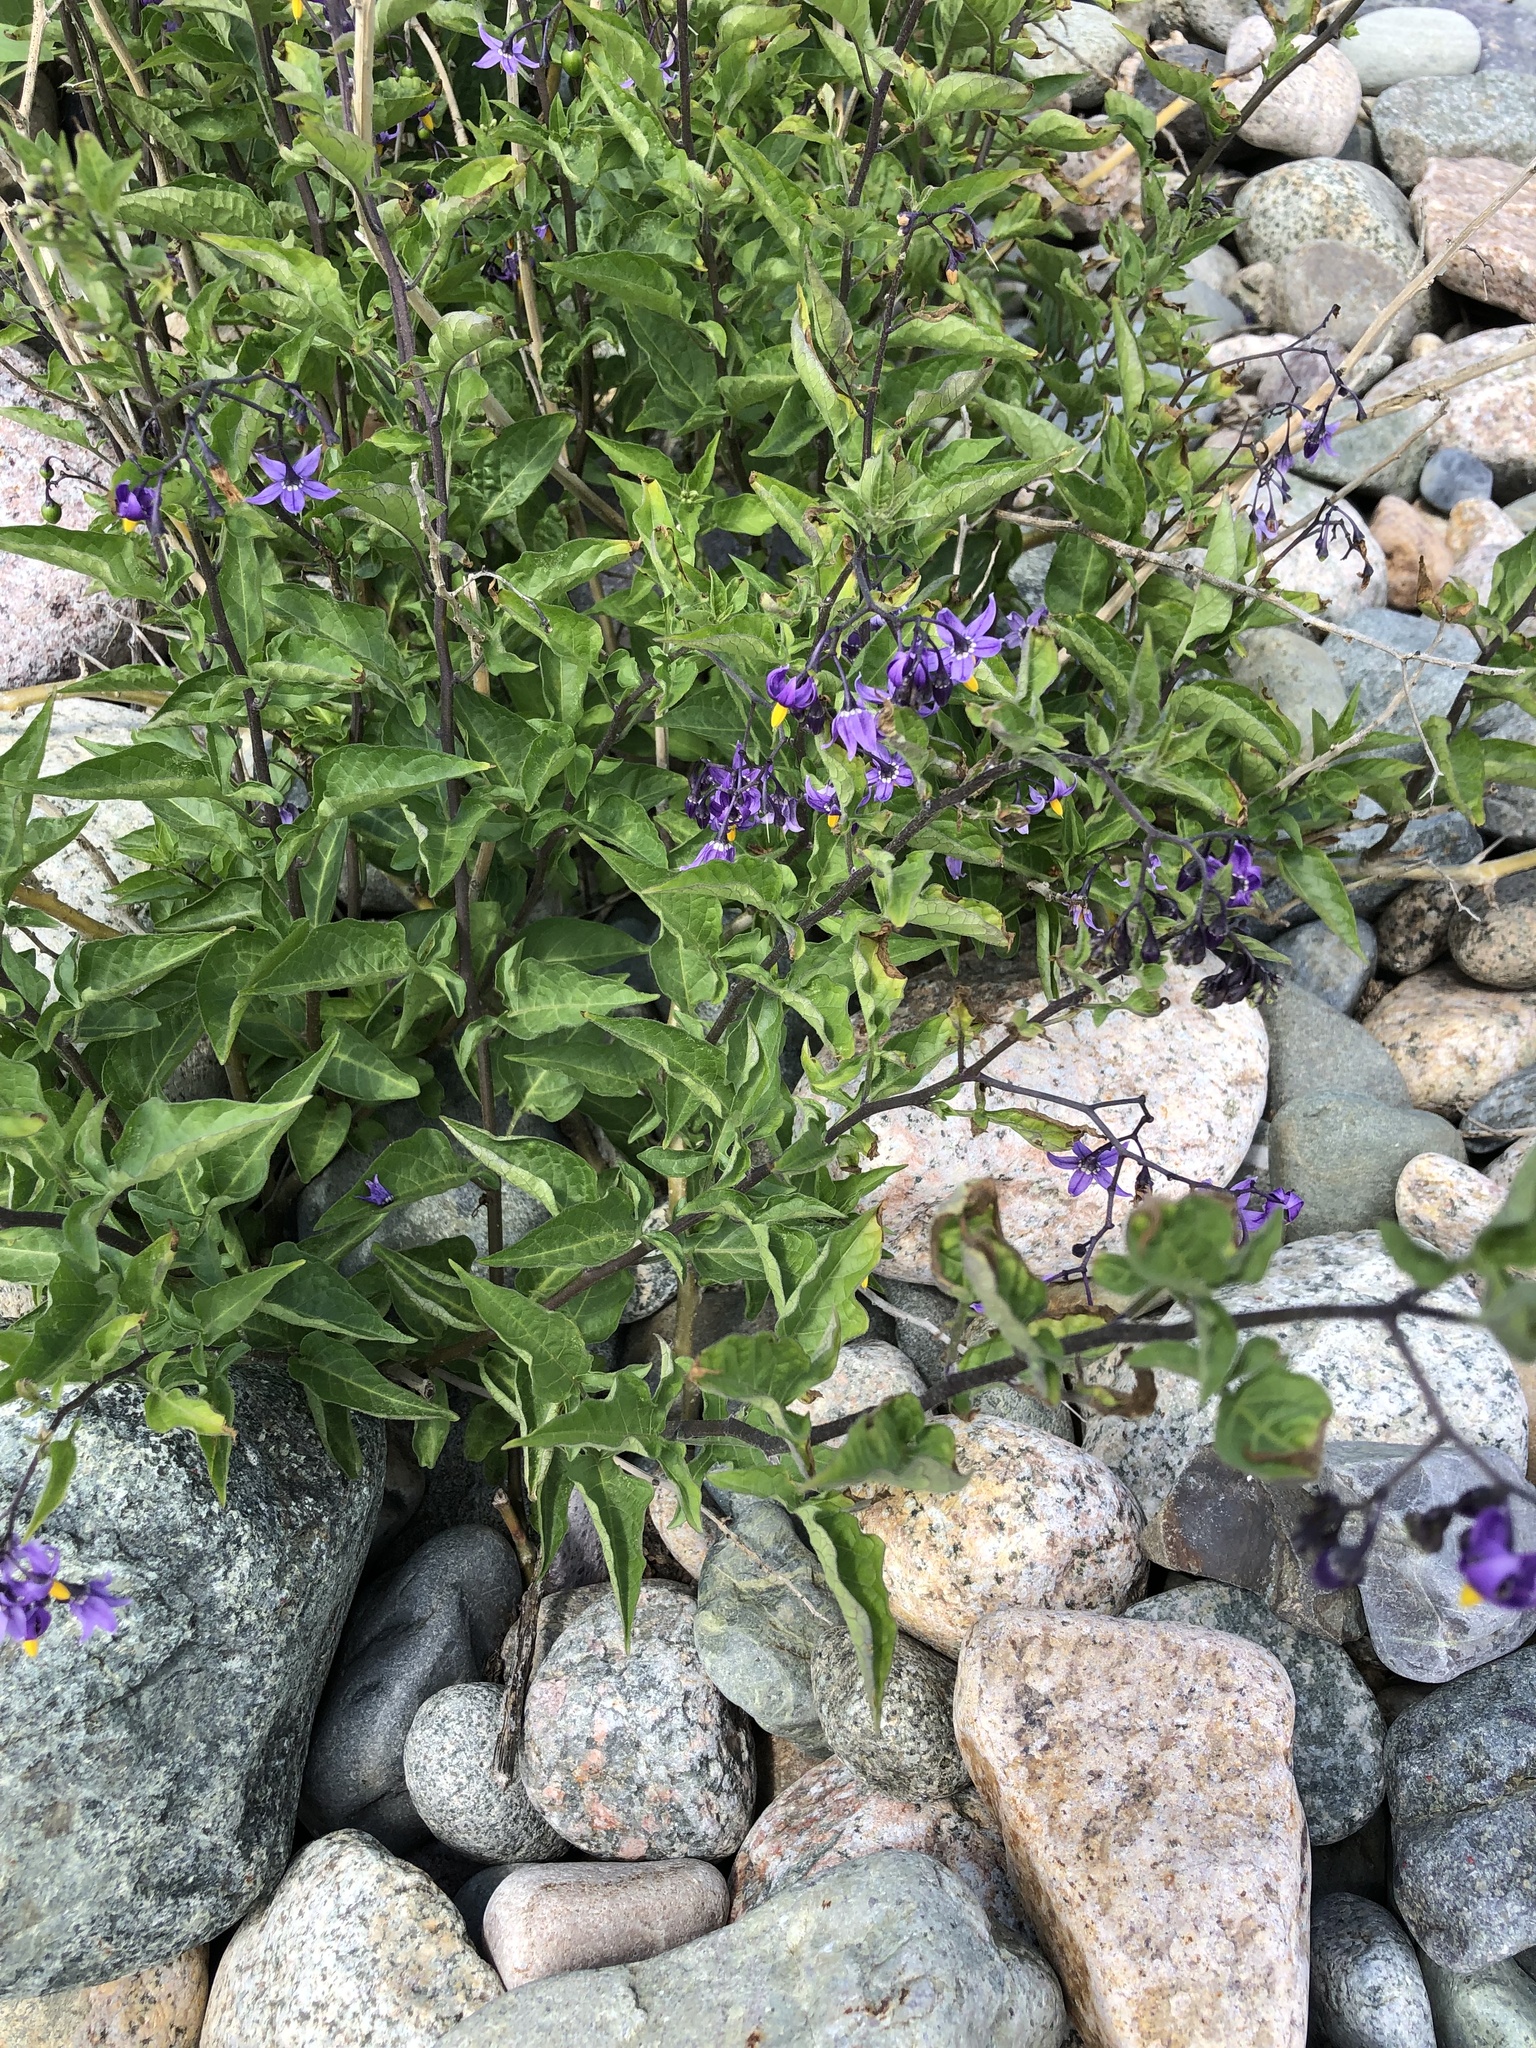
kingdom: Plantae
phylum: Tracheophyta
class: Magnoliopsida
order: Solanales
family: Solanaceae
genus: Solanum
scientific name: Solanum dulcamara
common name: Climbing nightshade
